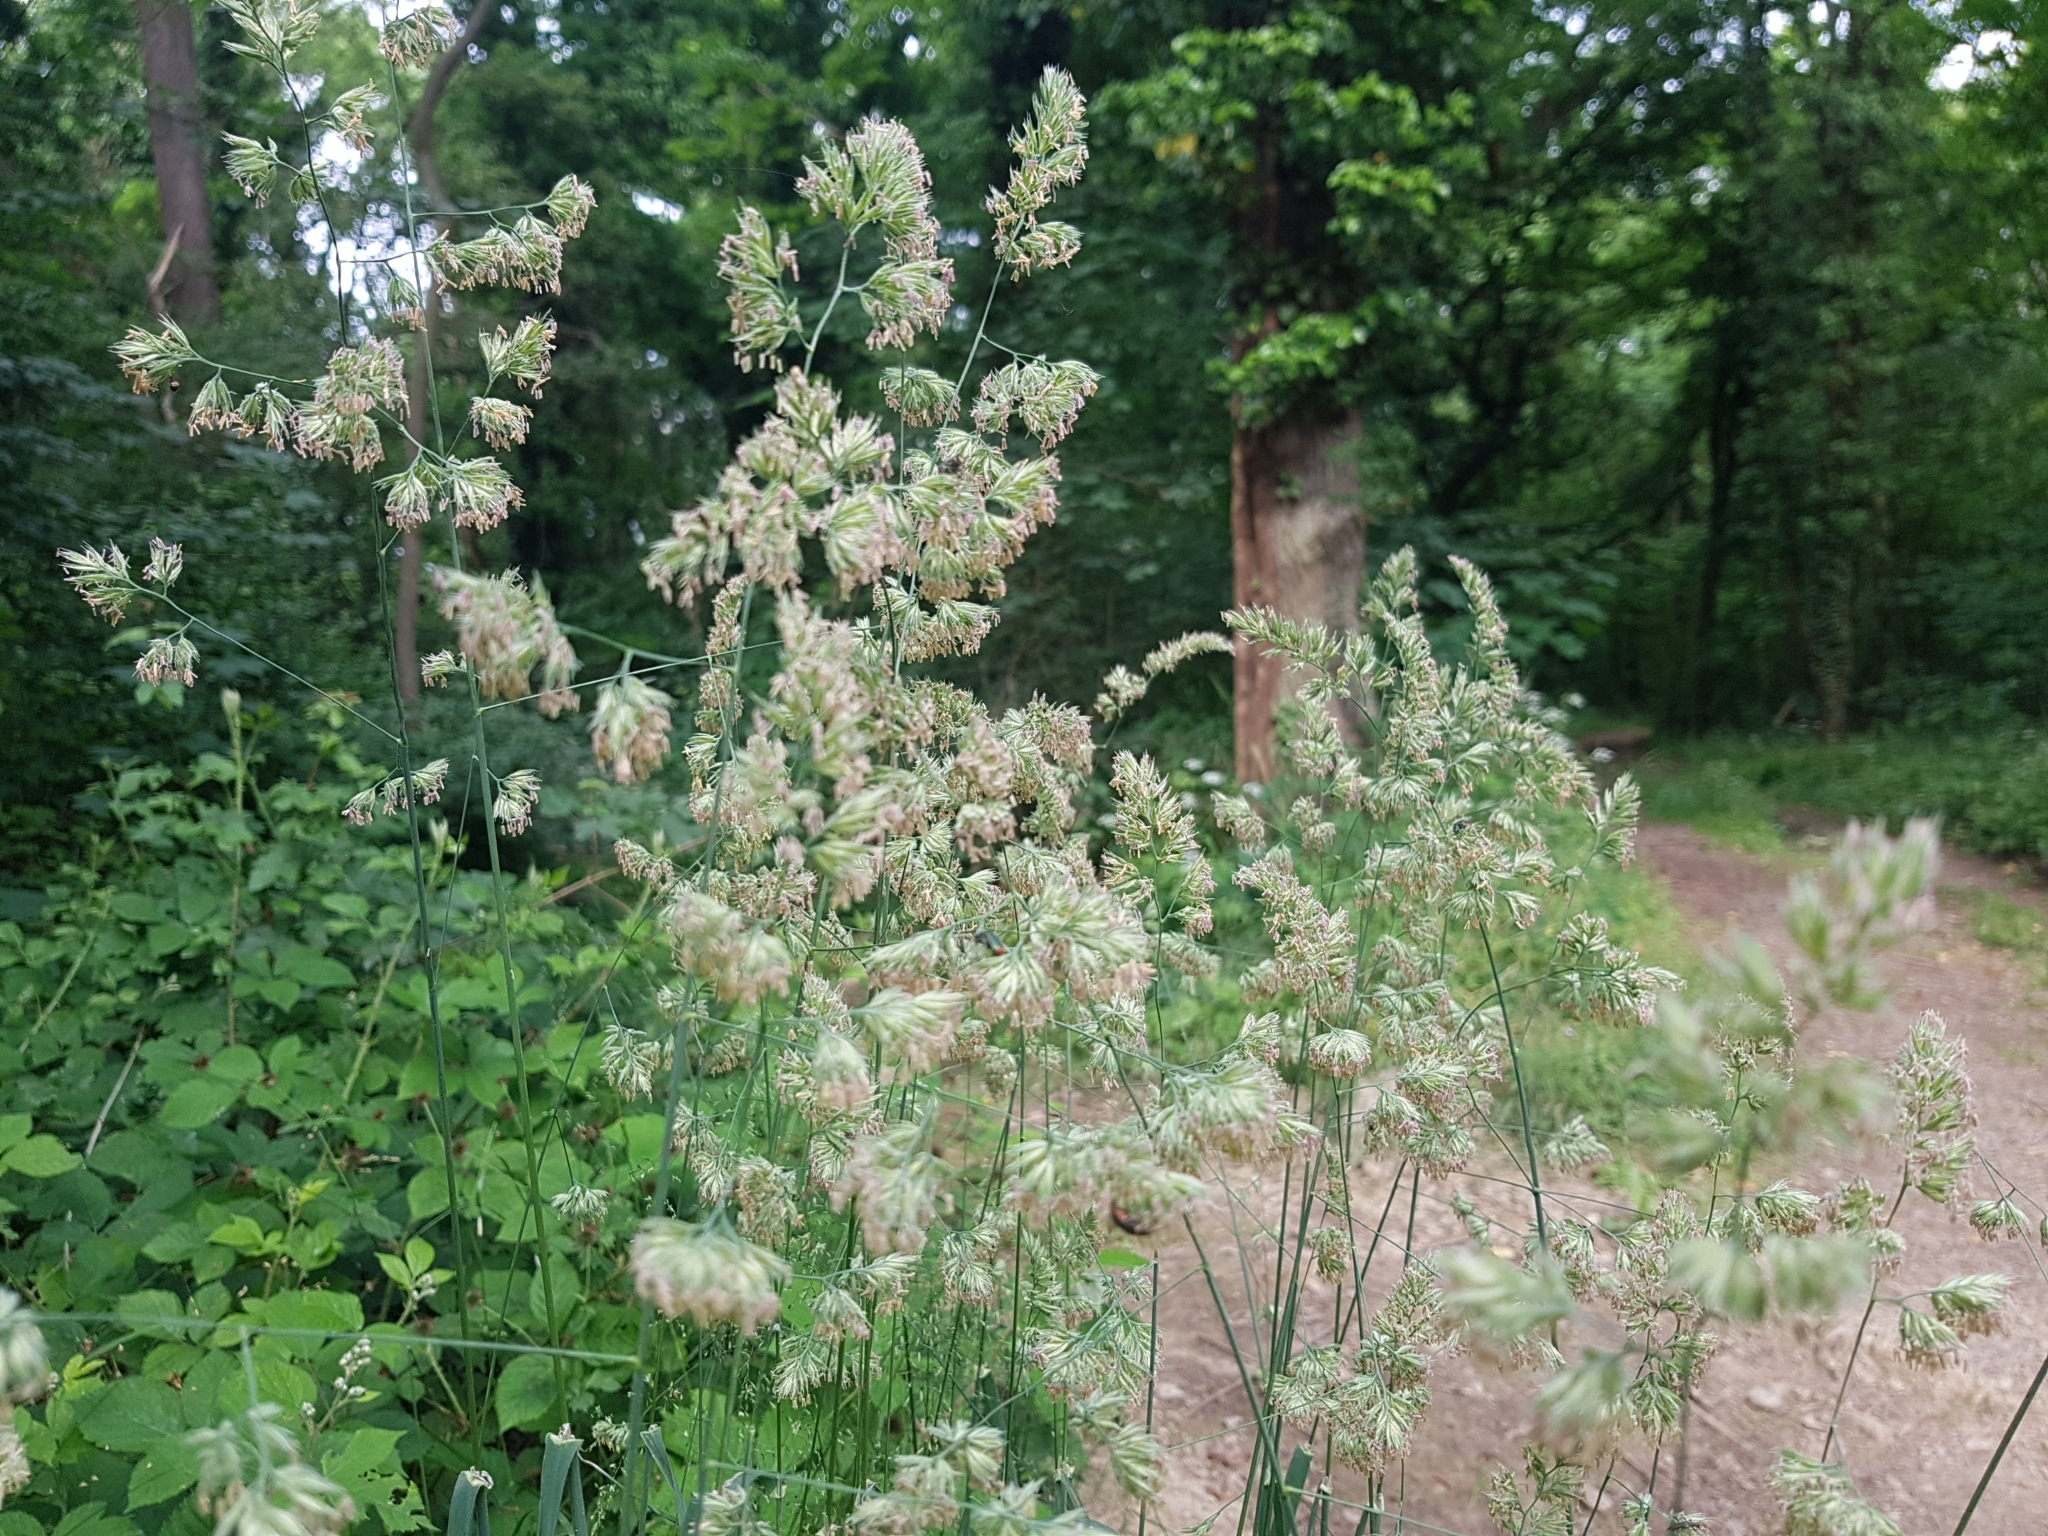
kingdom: Plantae
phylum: Tracheophyta
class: Liliopsida
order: Poales
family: Poaceae
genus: Dactylis
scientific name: Dactylis glomerata
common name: Orchardgrass
